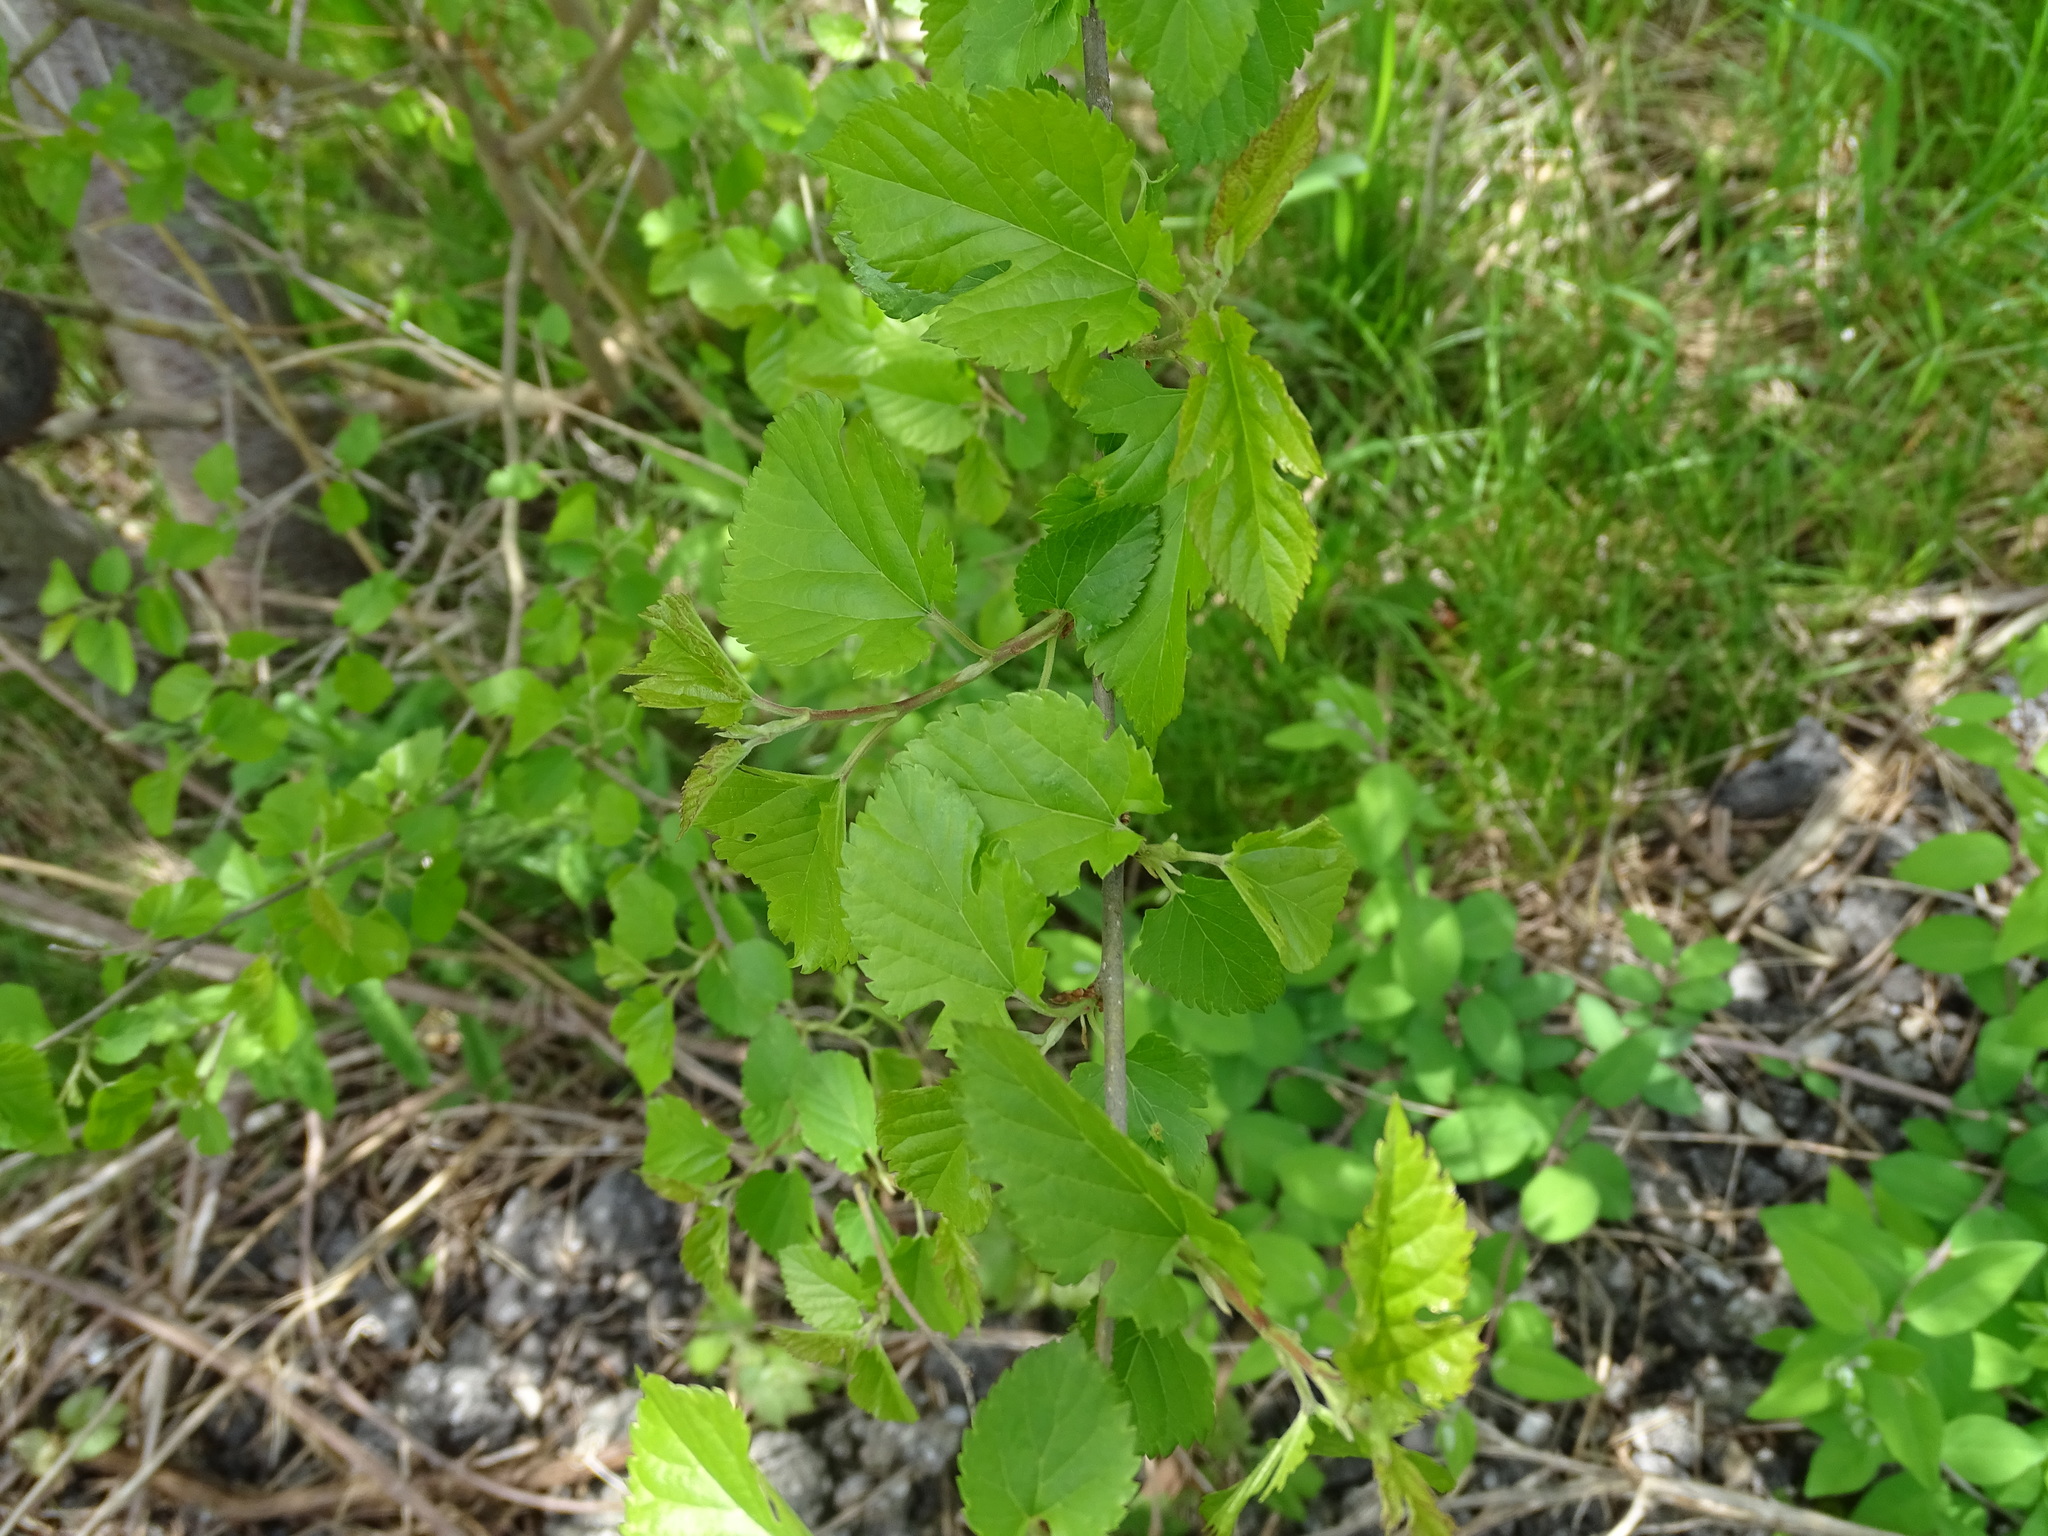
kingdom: Plantae
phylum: Tracheophyta
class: Magnoliopsida
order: Rosales
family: Moraceae
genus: Morus
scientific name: Morus alba
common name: White mulberry
